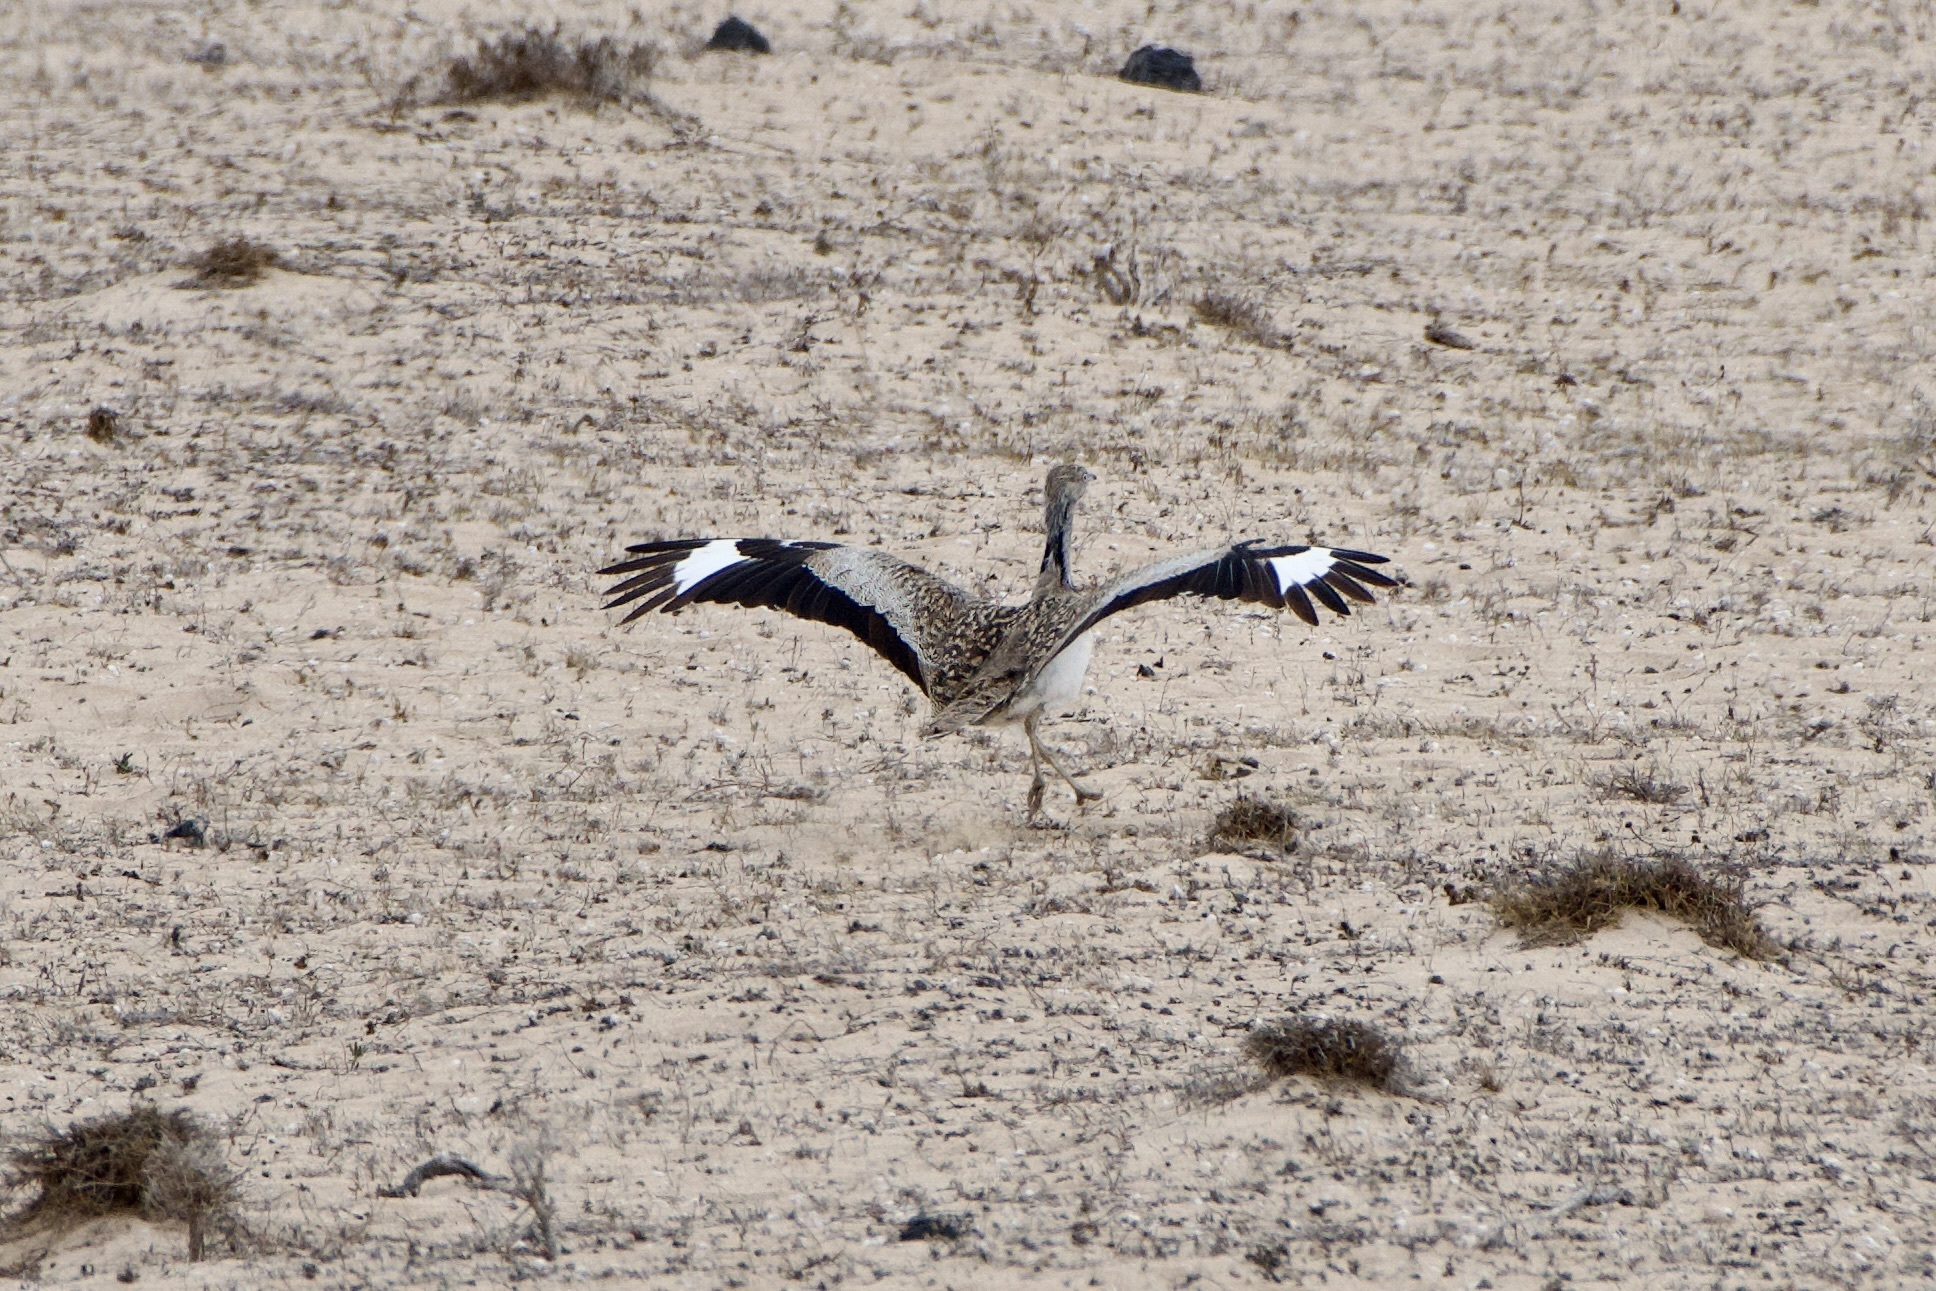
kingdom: Animalia
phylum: Chordata
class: Aves
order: Otidiformes
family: Otididae
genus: Chlamydotis
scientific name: Chlamydotis undulata
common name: Houbara bustard
